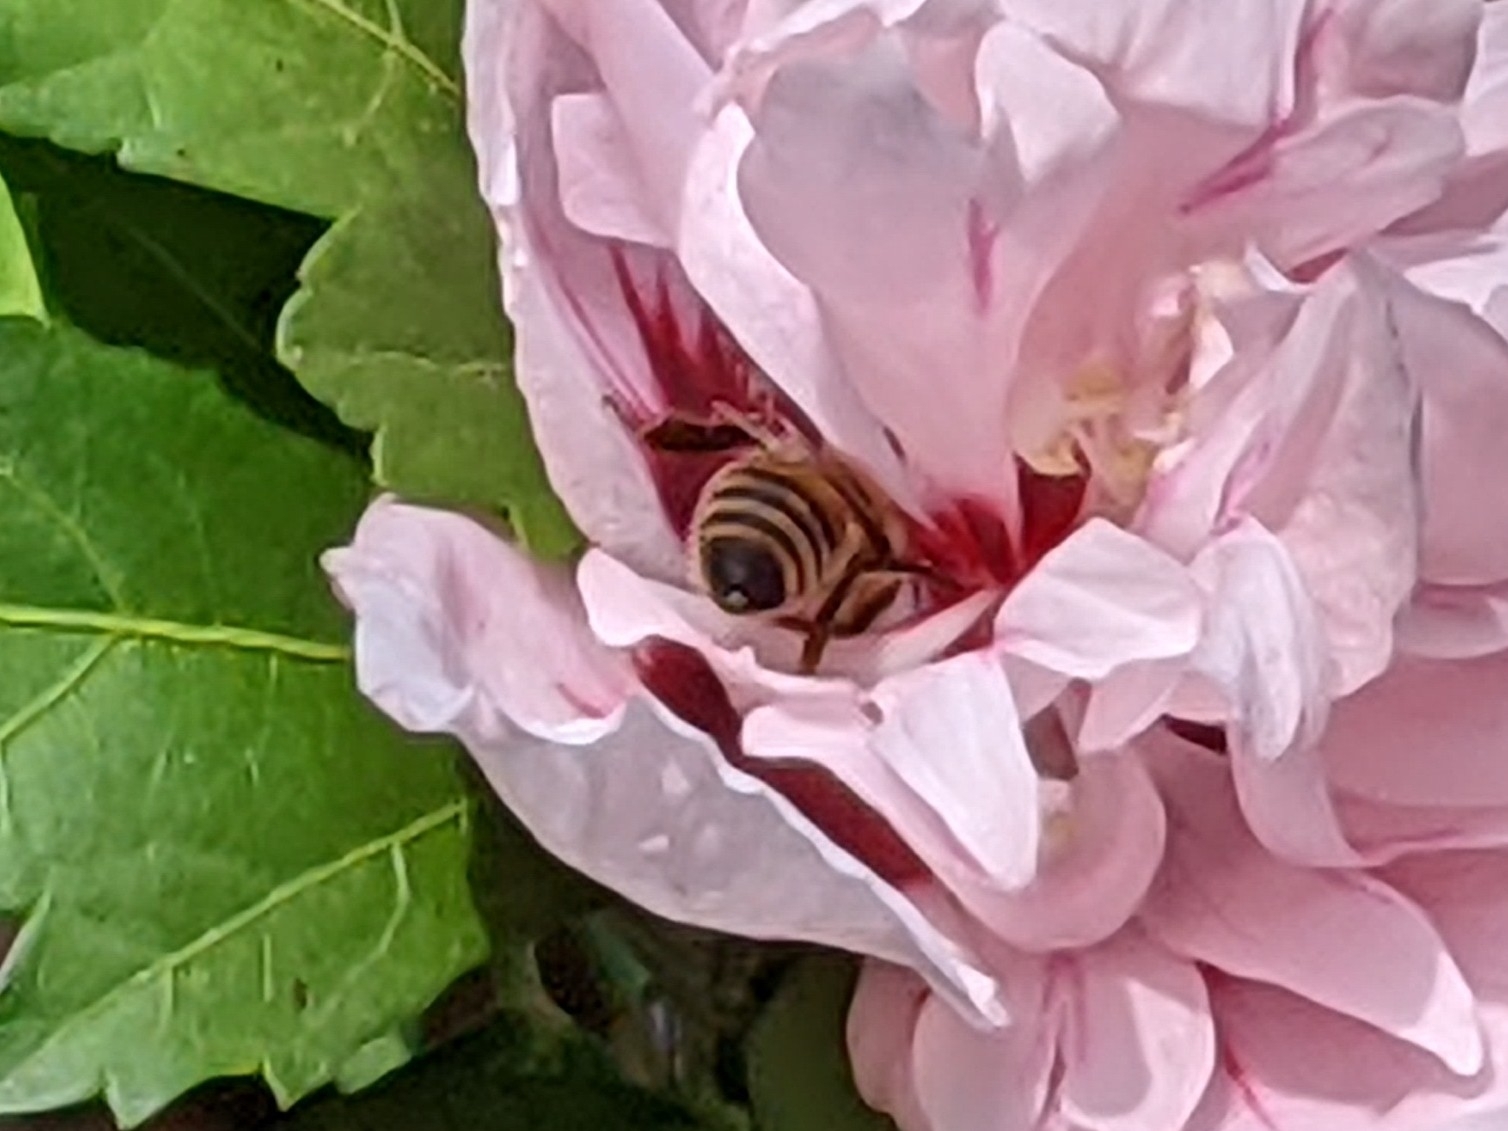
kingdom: Animalia
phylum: Arthropoda
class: Insecta
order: Hymenoptera
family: Apidae
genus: Apis
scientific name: Apis mellifera
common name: Honey bee
